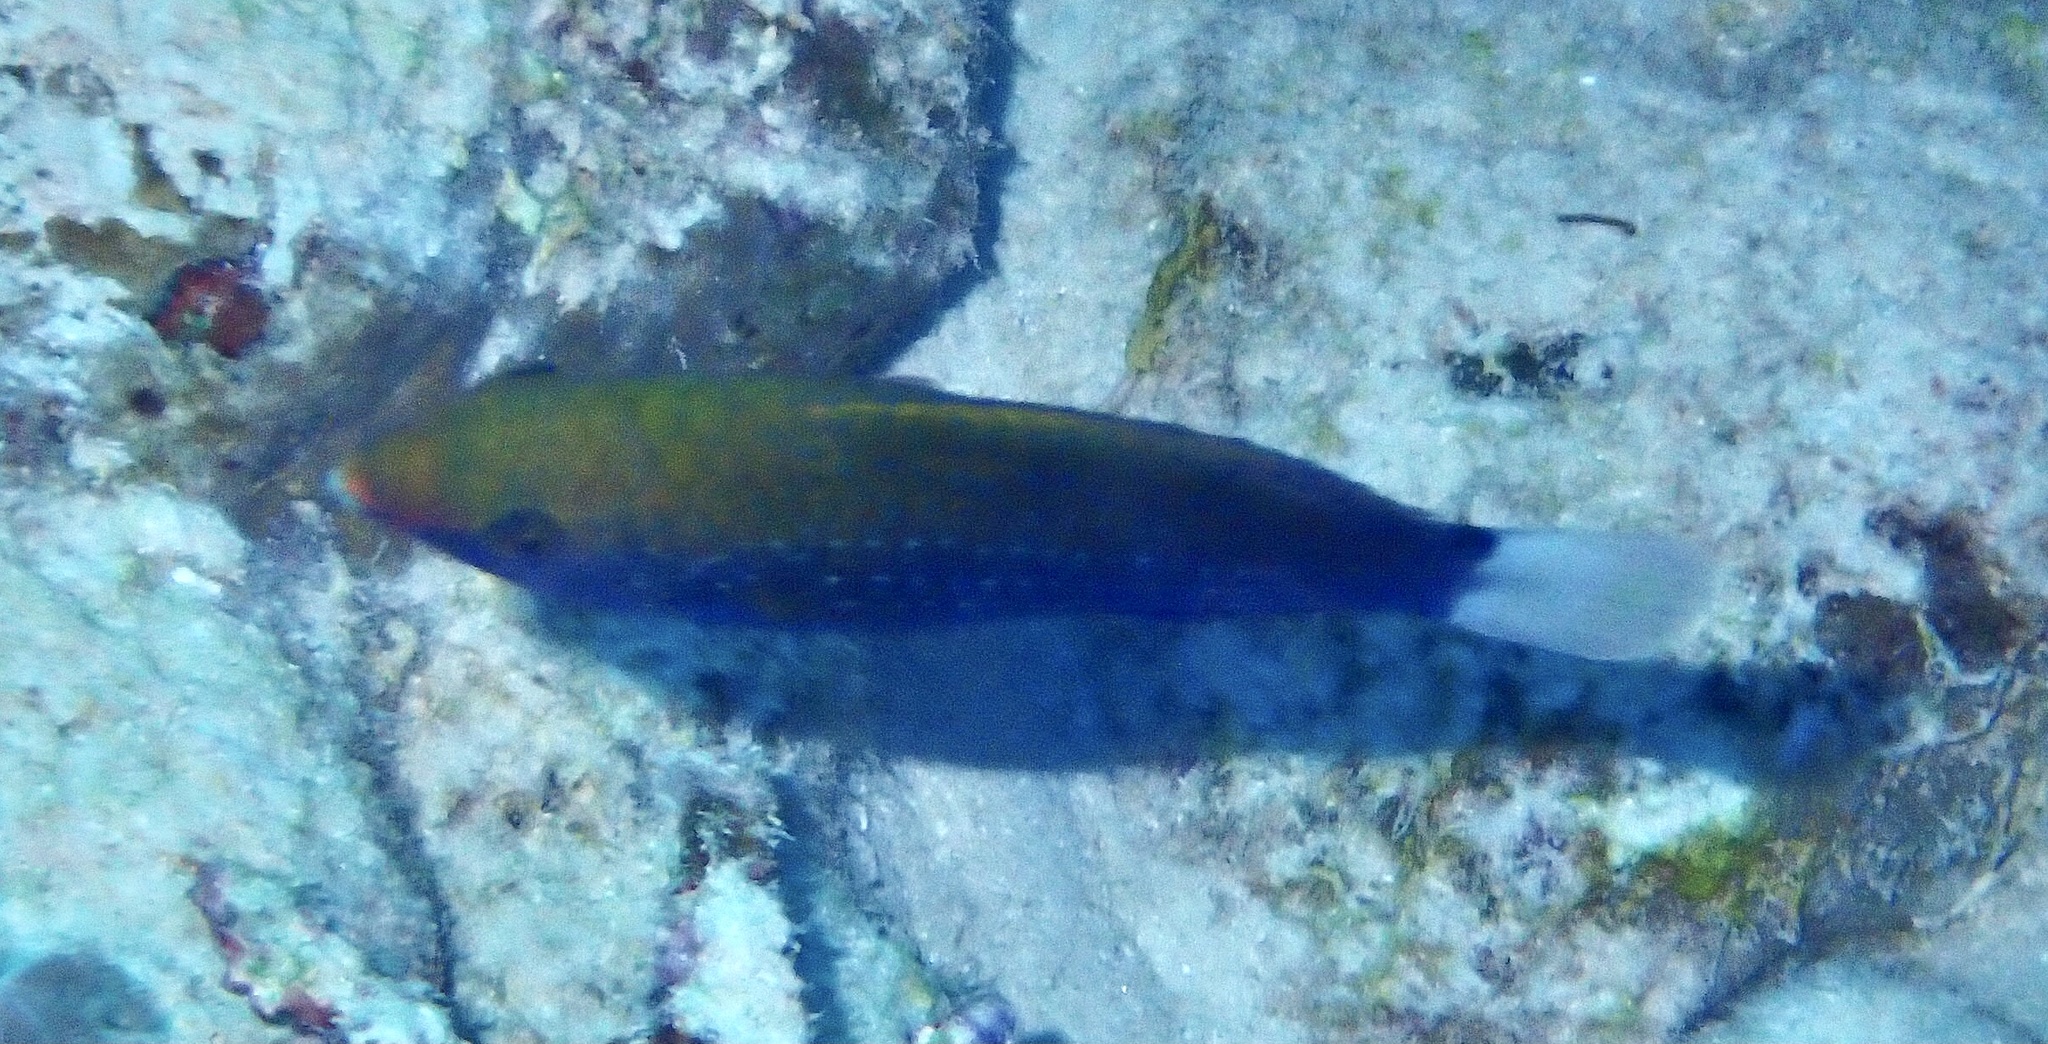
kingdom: Animalia
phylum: Chordata
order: Perciformes
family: Scaridae
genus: Scarus
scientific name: Scarus niger
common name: Dusky parrotfish
